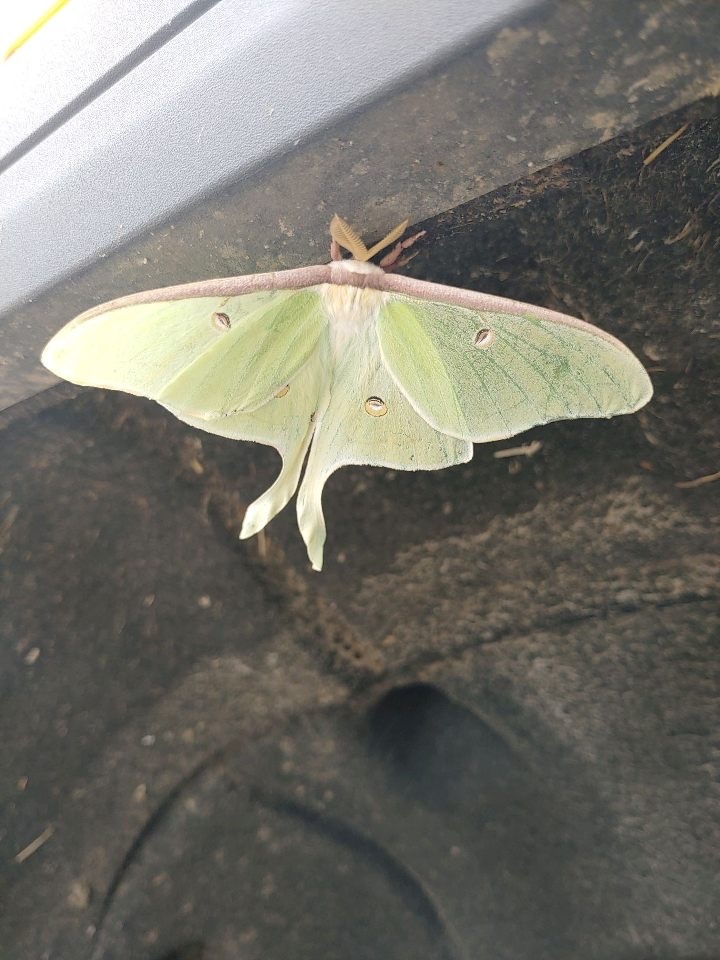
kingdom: Animalia
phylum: Arthropoda
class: Insecta
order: Lepidoptera
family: Saturniidae
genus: Actias
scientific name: Actias luna
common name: Luna moth
